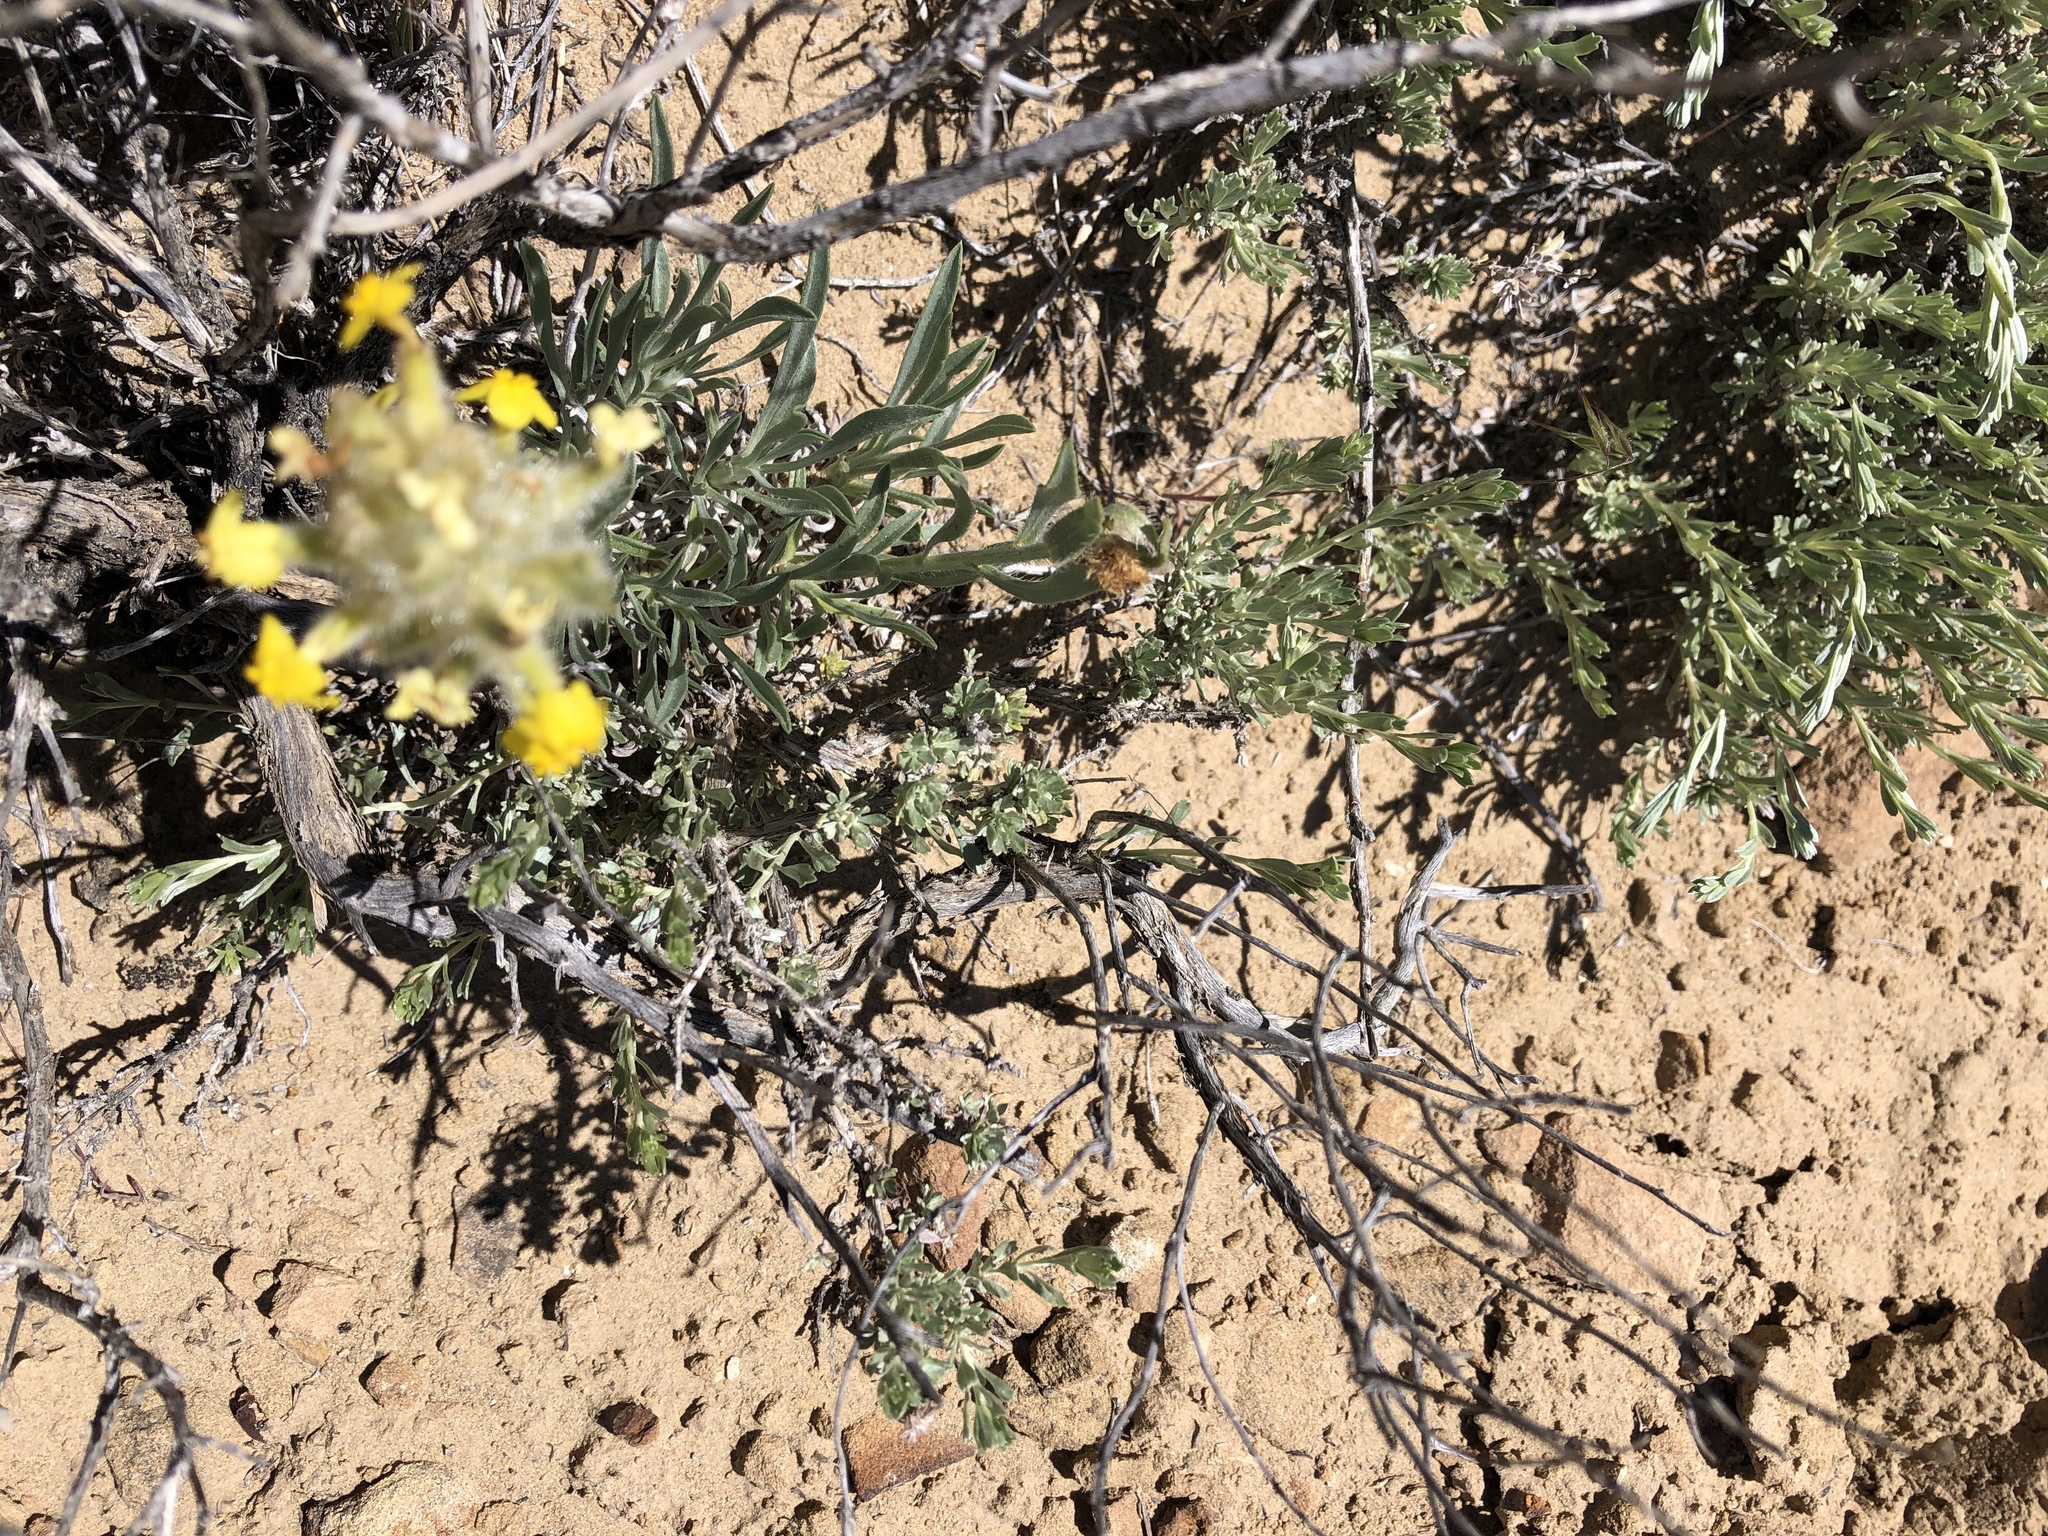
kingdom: Plantae
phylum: Tracheophyta
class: Magnoliopsida
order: Boraginales
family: Boraginaceae
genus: Oreocarya
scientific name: Oreocarya flava
